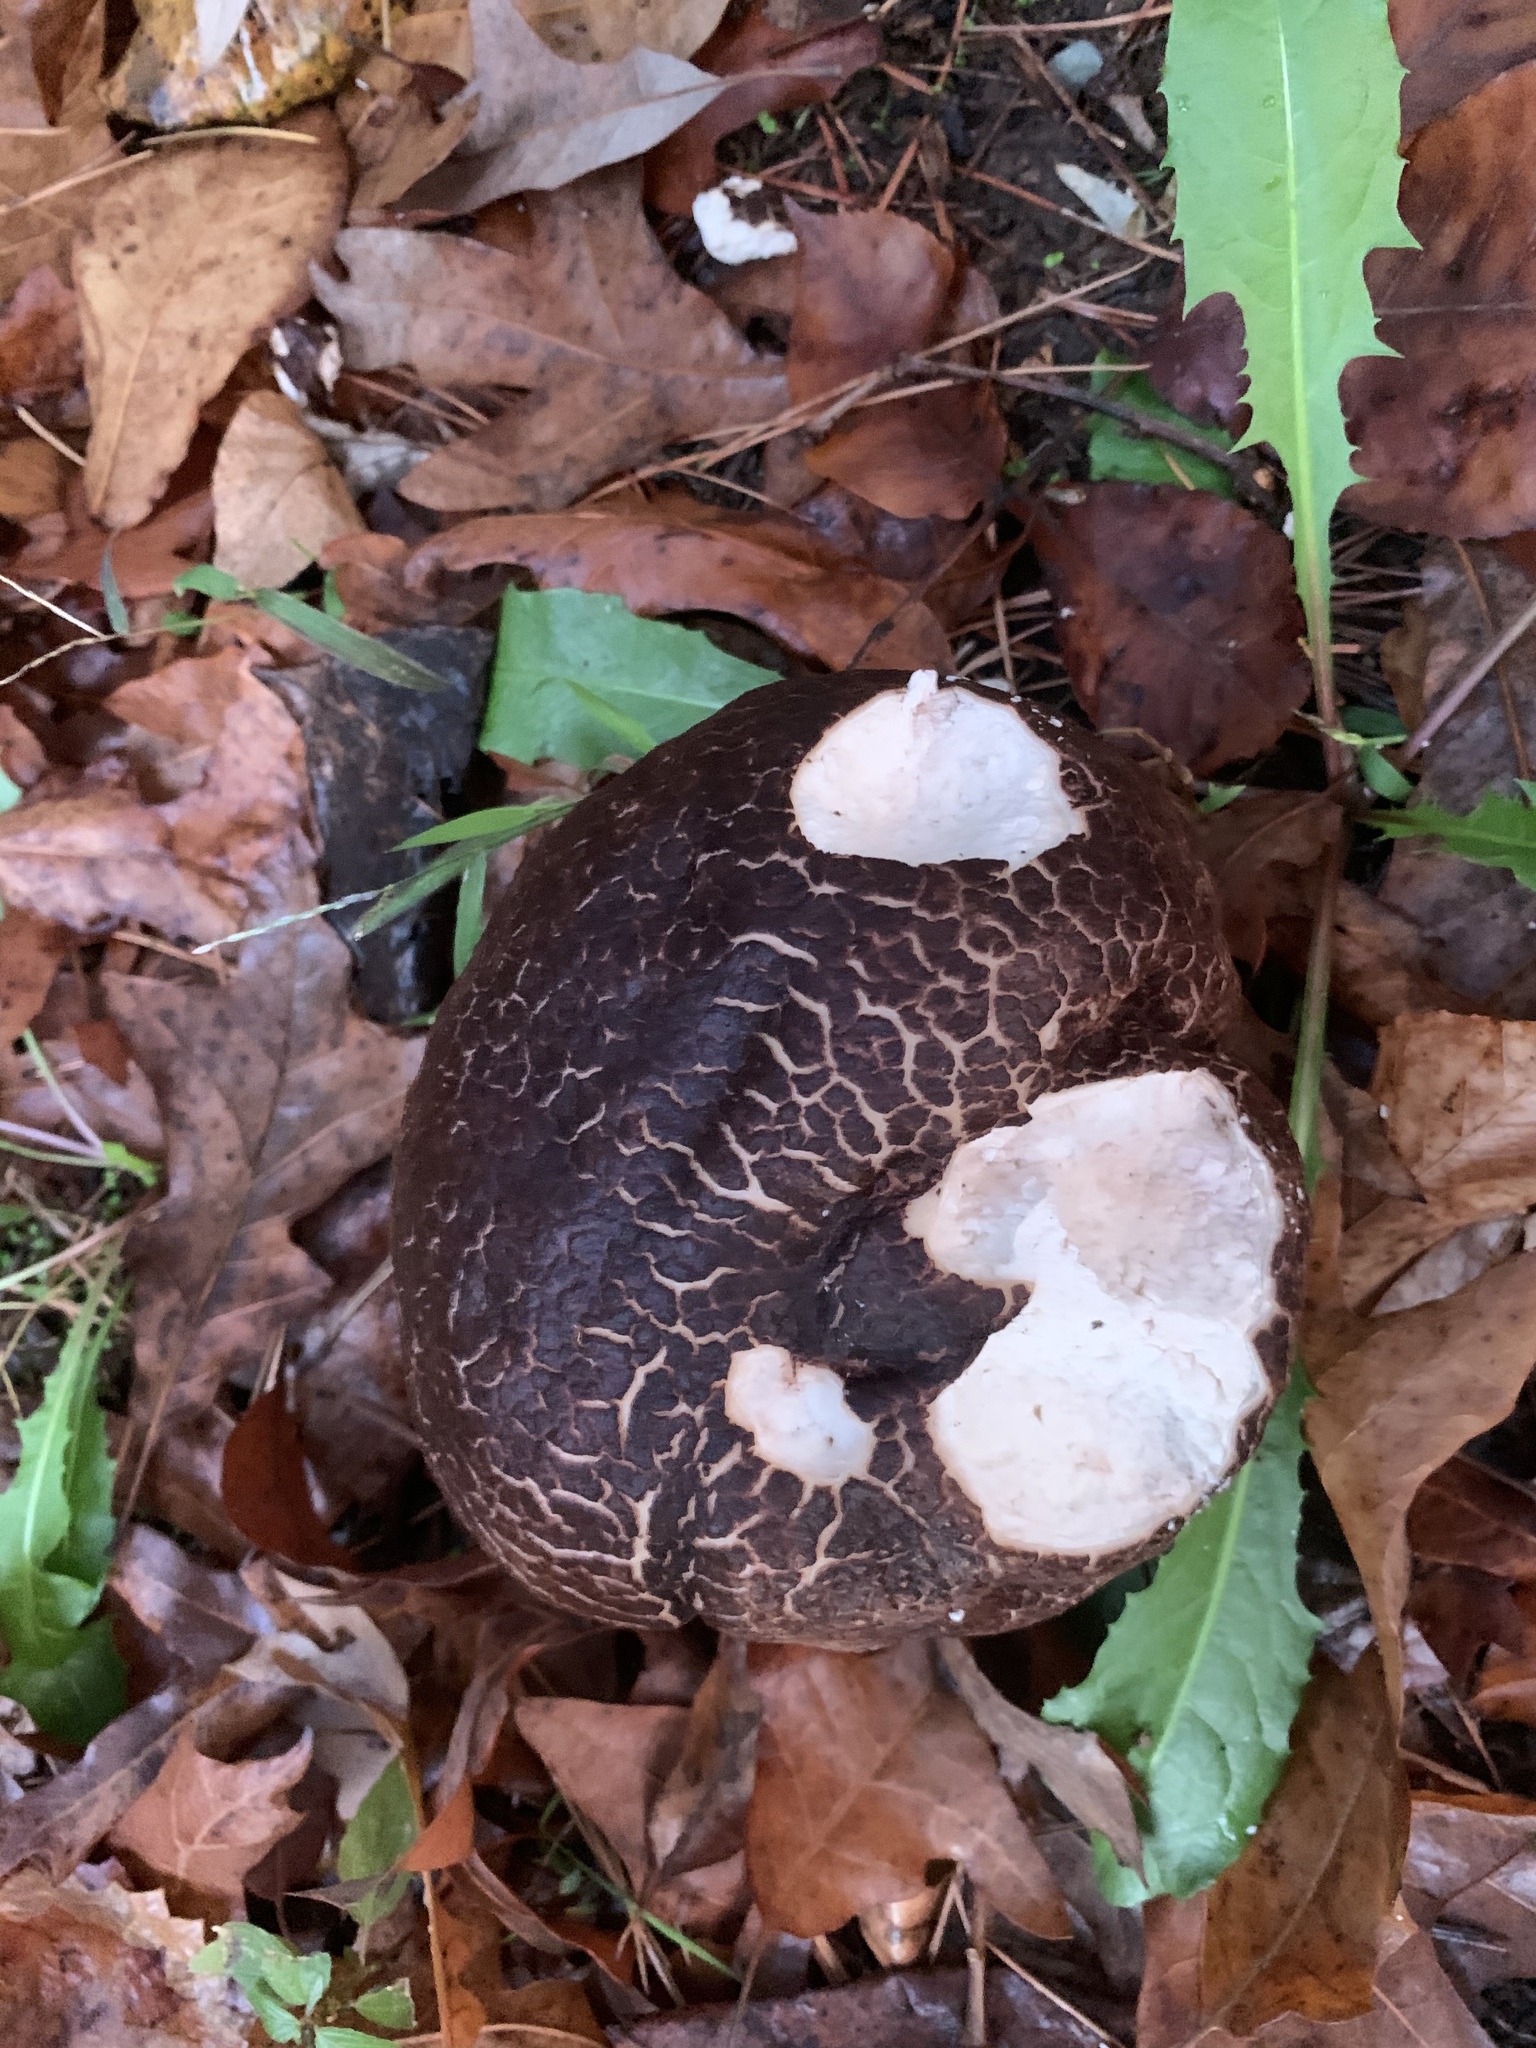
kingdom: Fungi
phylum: Basidiomycota
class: Agaricomycetes
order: Agaricales
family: Lycoperdaceae
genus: Calvatia
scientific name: Calvatia cyathiformis
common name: Purple-spored puffball
